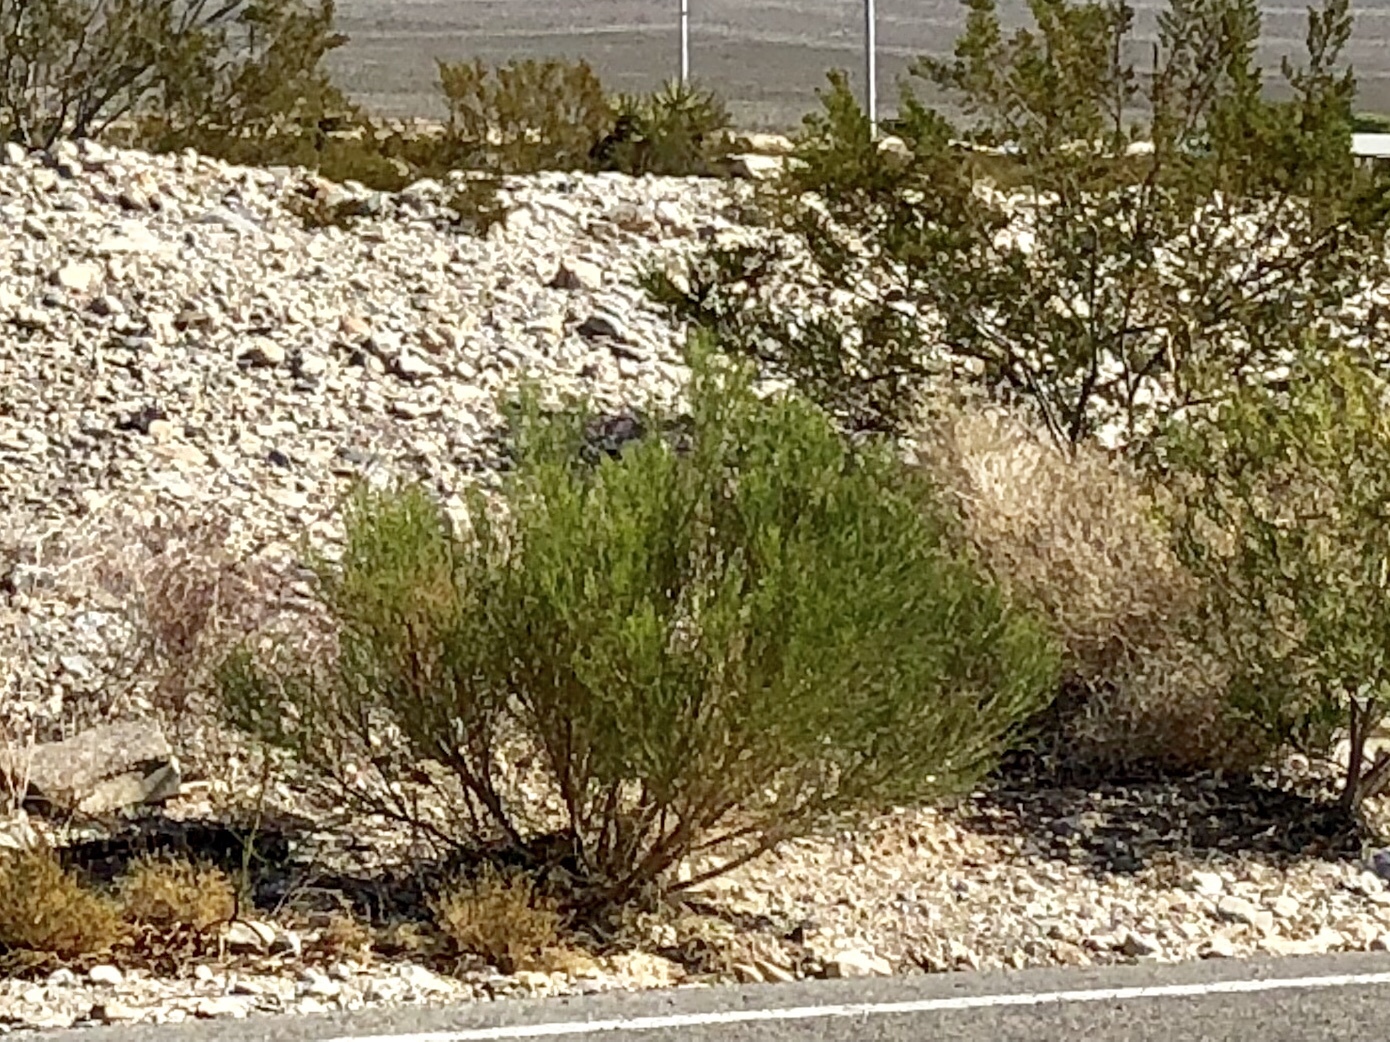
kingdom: Plantae
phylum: Tracheophyta
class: Magnoliopsida
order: Asterales
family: Asteraceae
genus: Baccharis
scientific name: Baccharis sarothroides
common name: Desert-broom
